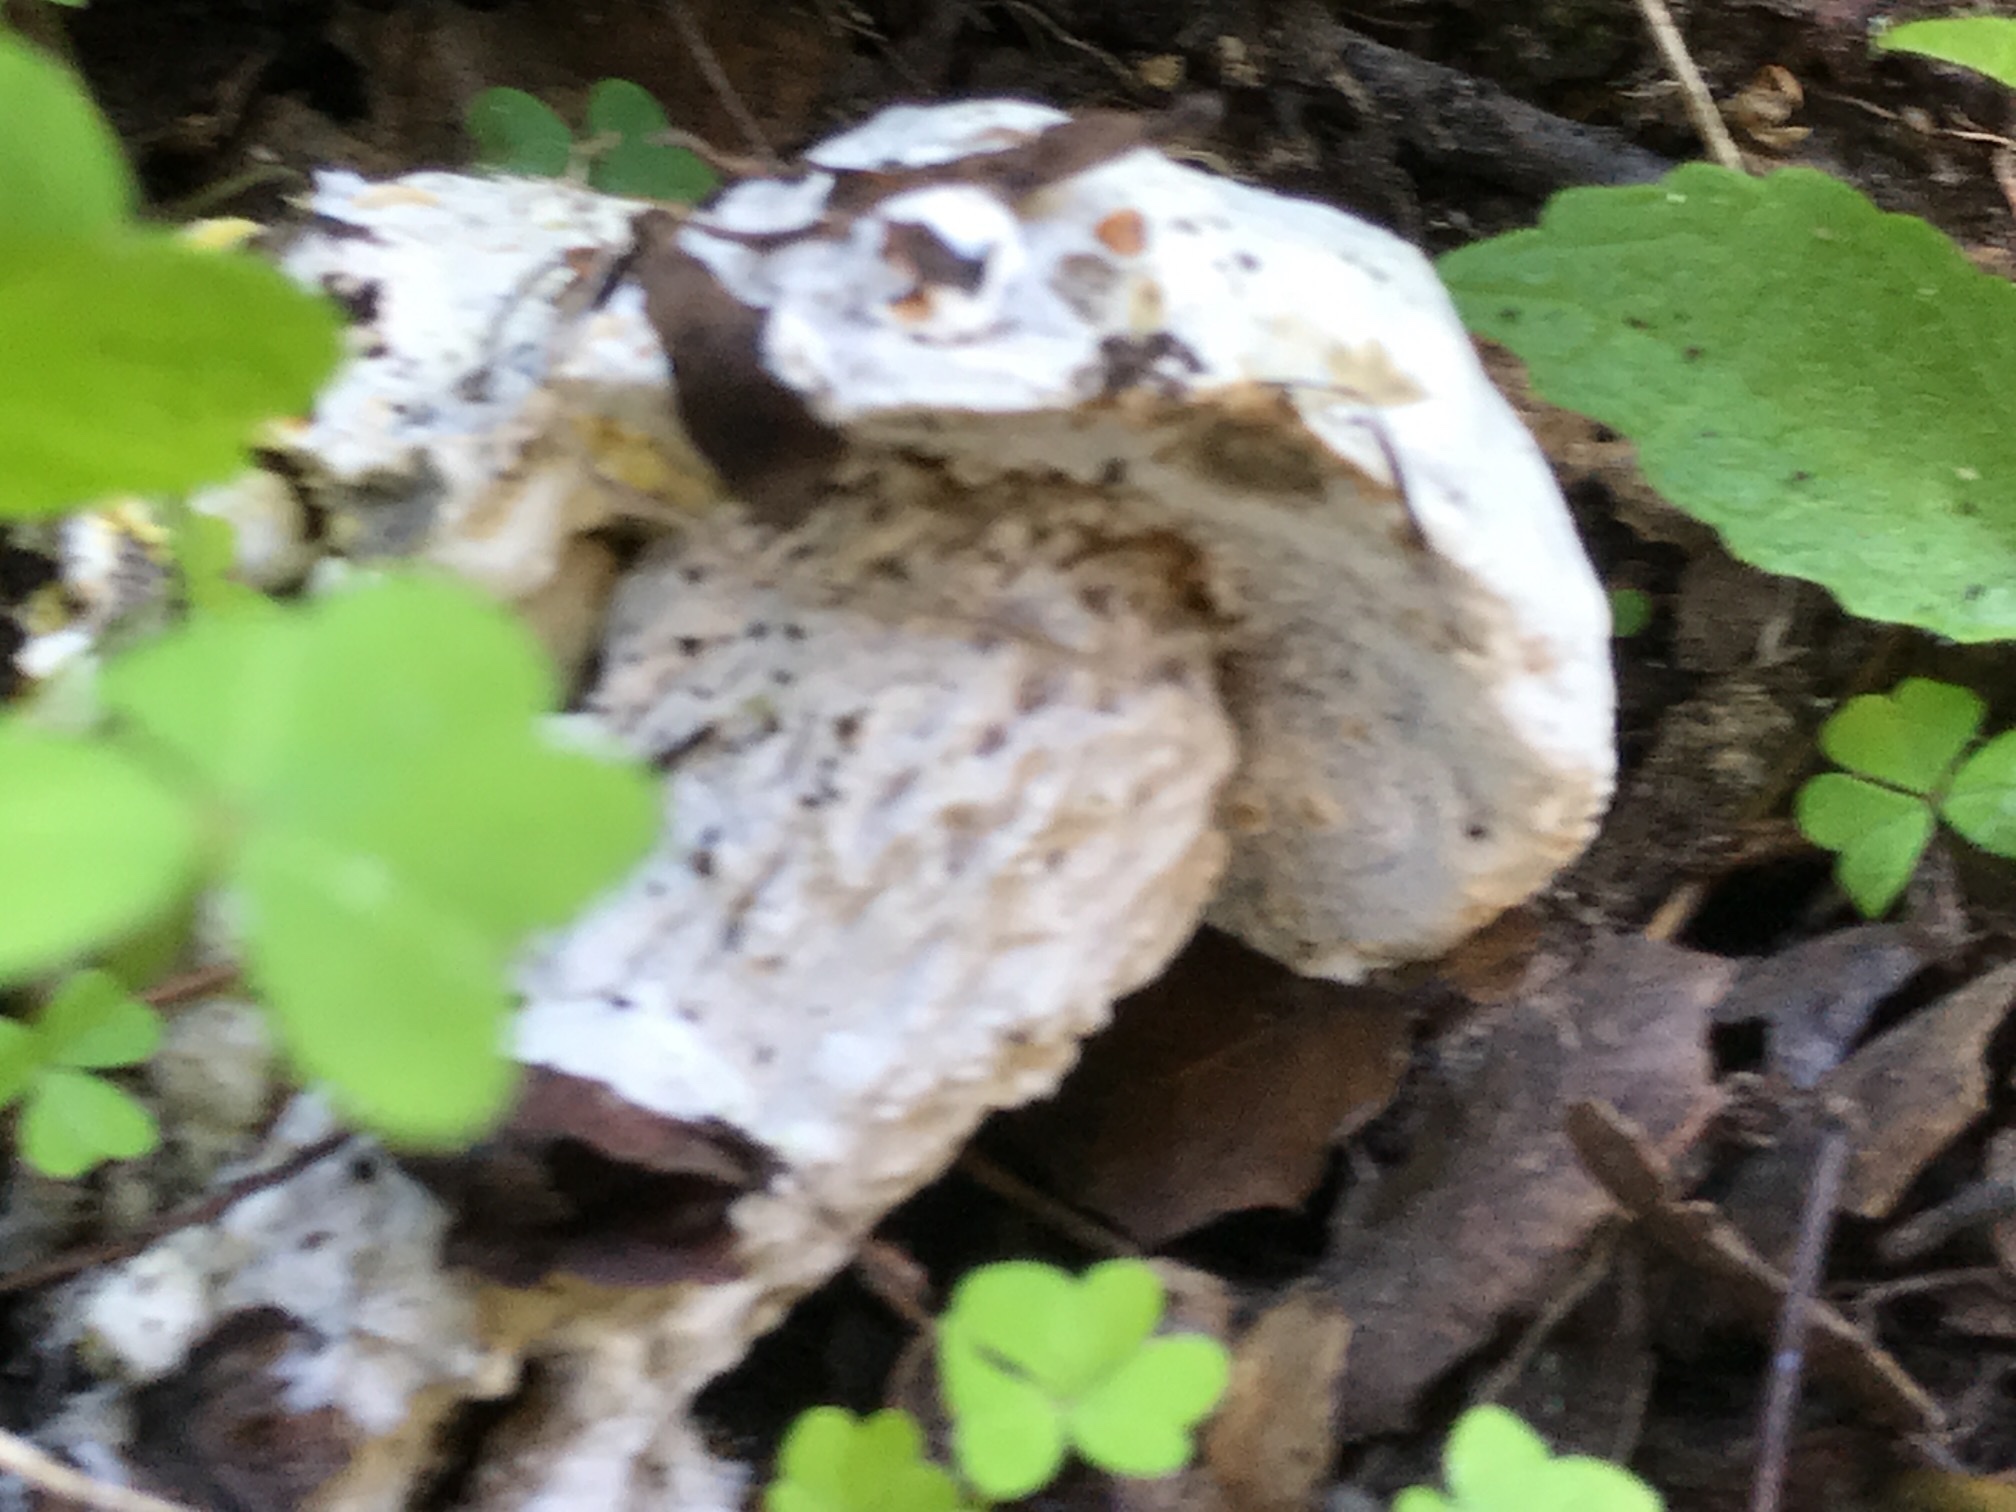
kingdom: Fungi
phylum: Ascomycota
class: Sordariomycetes
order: Hypocreales
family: Hypocreaceae
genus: Hypomyces
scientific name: Hypomyces chrysospermus
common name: Bolete mould
